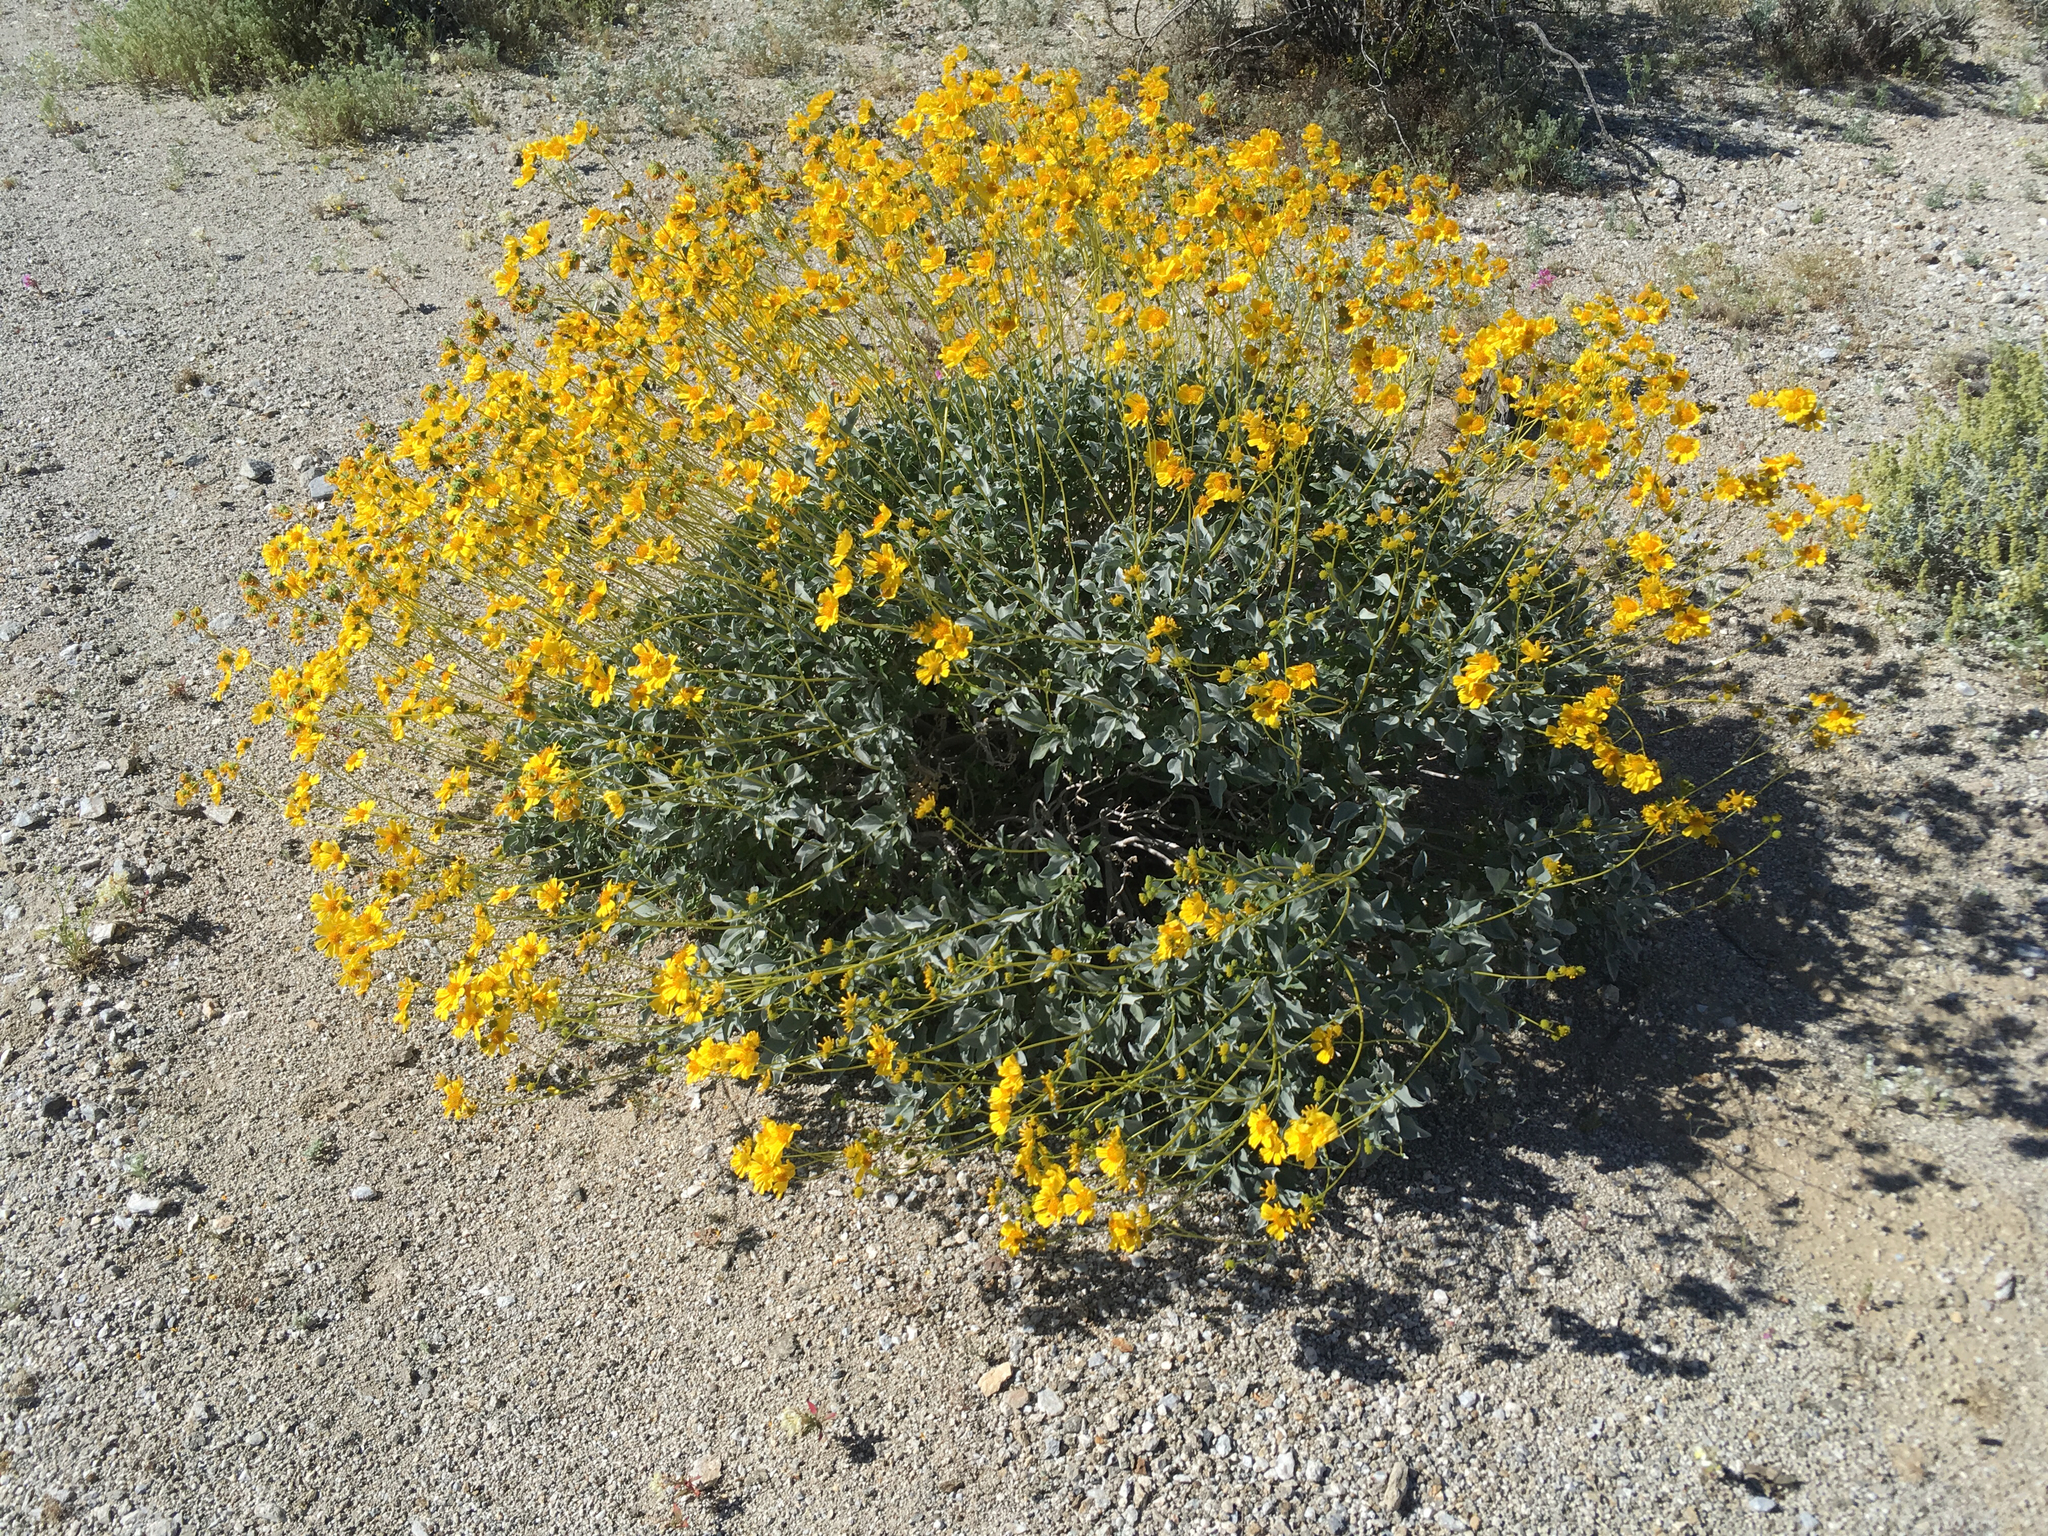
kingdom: Plantae
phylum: Tracheophyta
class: Magnoliopsida
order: Asterales
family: Asteraceae
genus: Encelia
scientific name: Encelia farinosa
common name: Brittlebush
